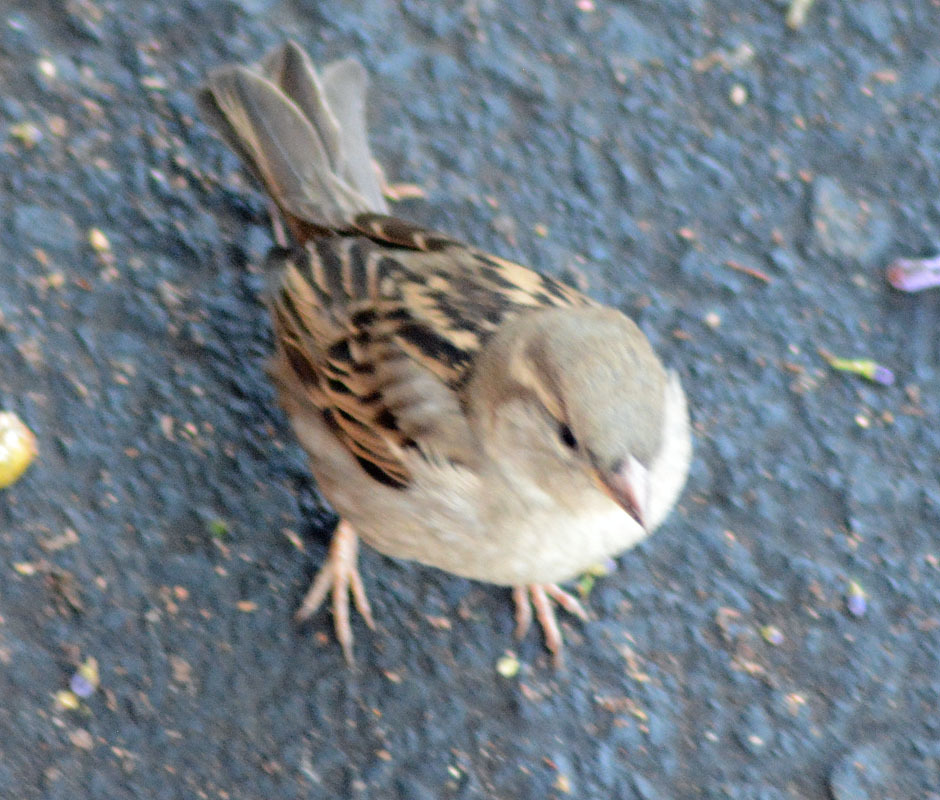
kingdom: Animalia
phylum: Chordata
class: Aves
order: Passeriformes
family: Passeridae
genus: Passer
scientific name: Passer domesticus
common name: House sparrow
